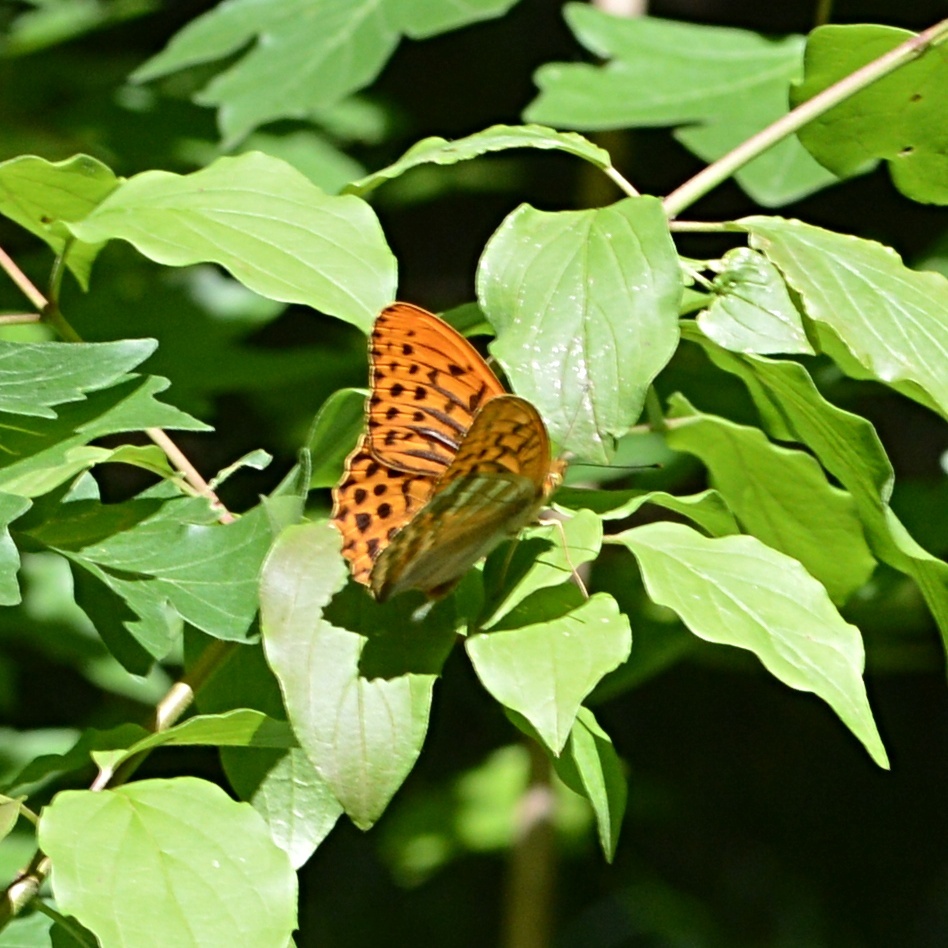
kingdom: Animalia
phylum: Arthropoda
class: Insecta
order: Lepidoptera
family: Nymphalidae
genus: Argynnis
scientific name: Argynnis paphia
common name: Silver-washed fritillary
